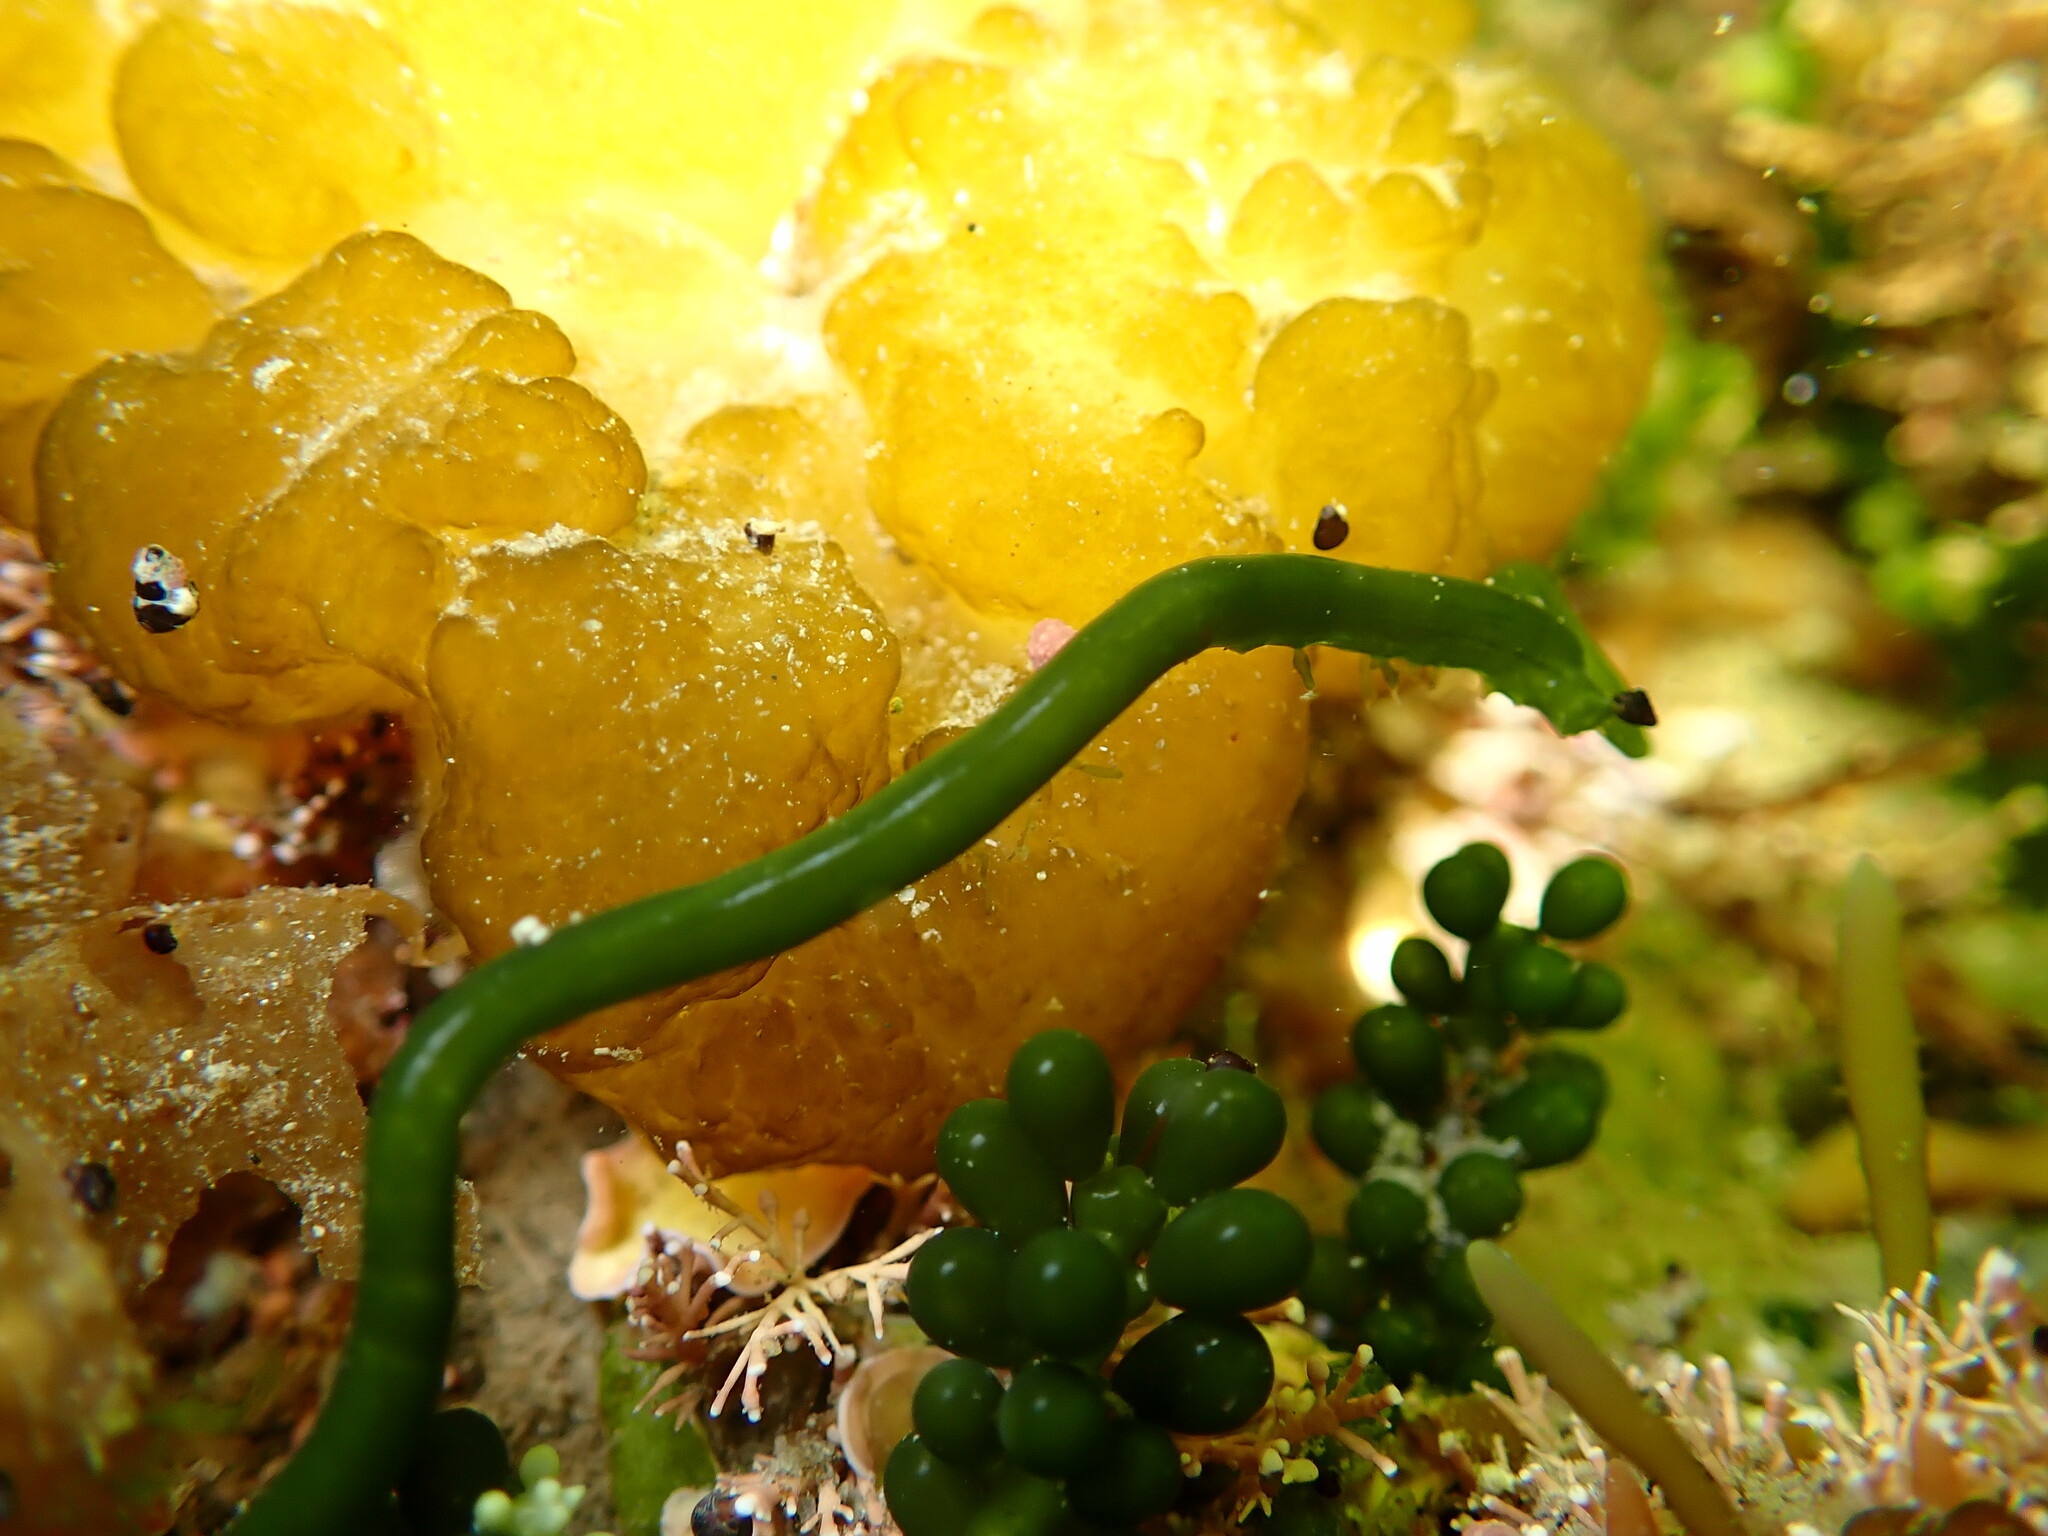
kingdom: Plantae
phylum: Chlorophyta
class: Ulvophyceae
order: Bryopsidales
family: Caulerpaceae
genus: Caulerpa
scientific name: Caulerpa geminata
